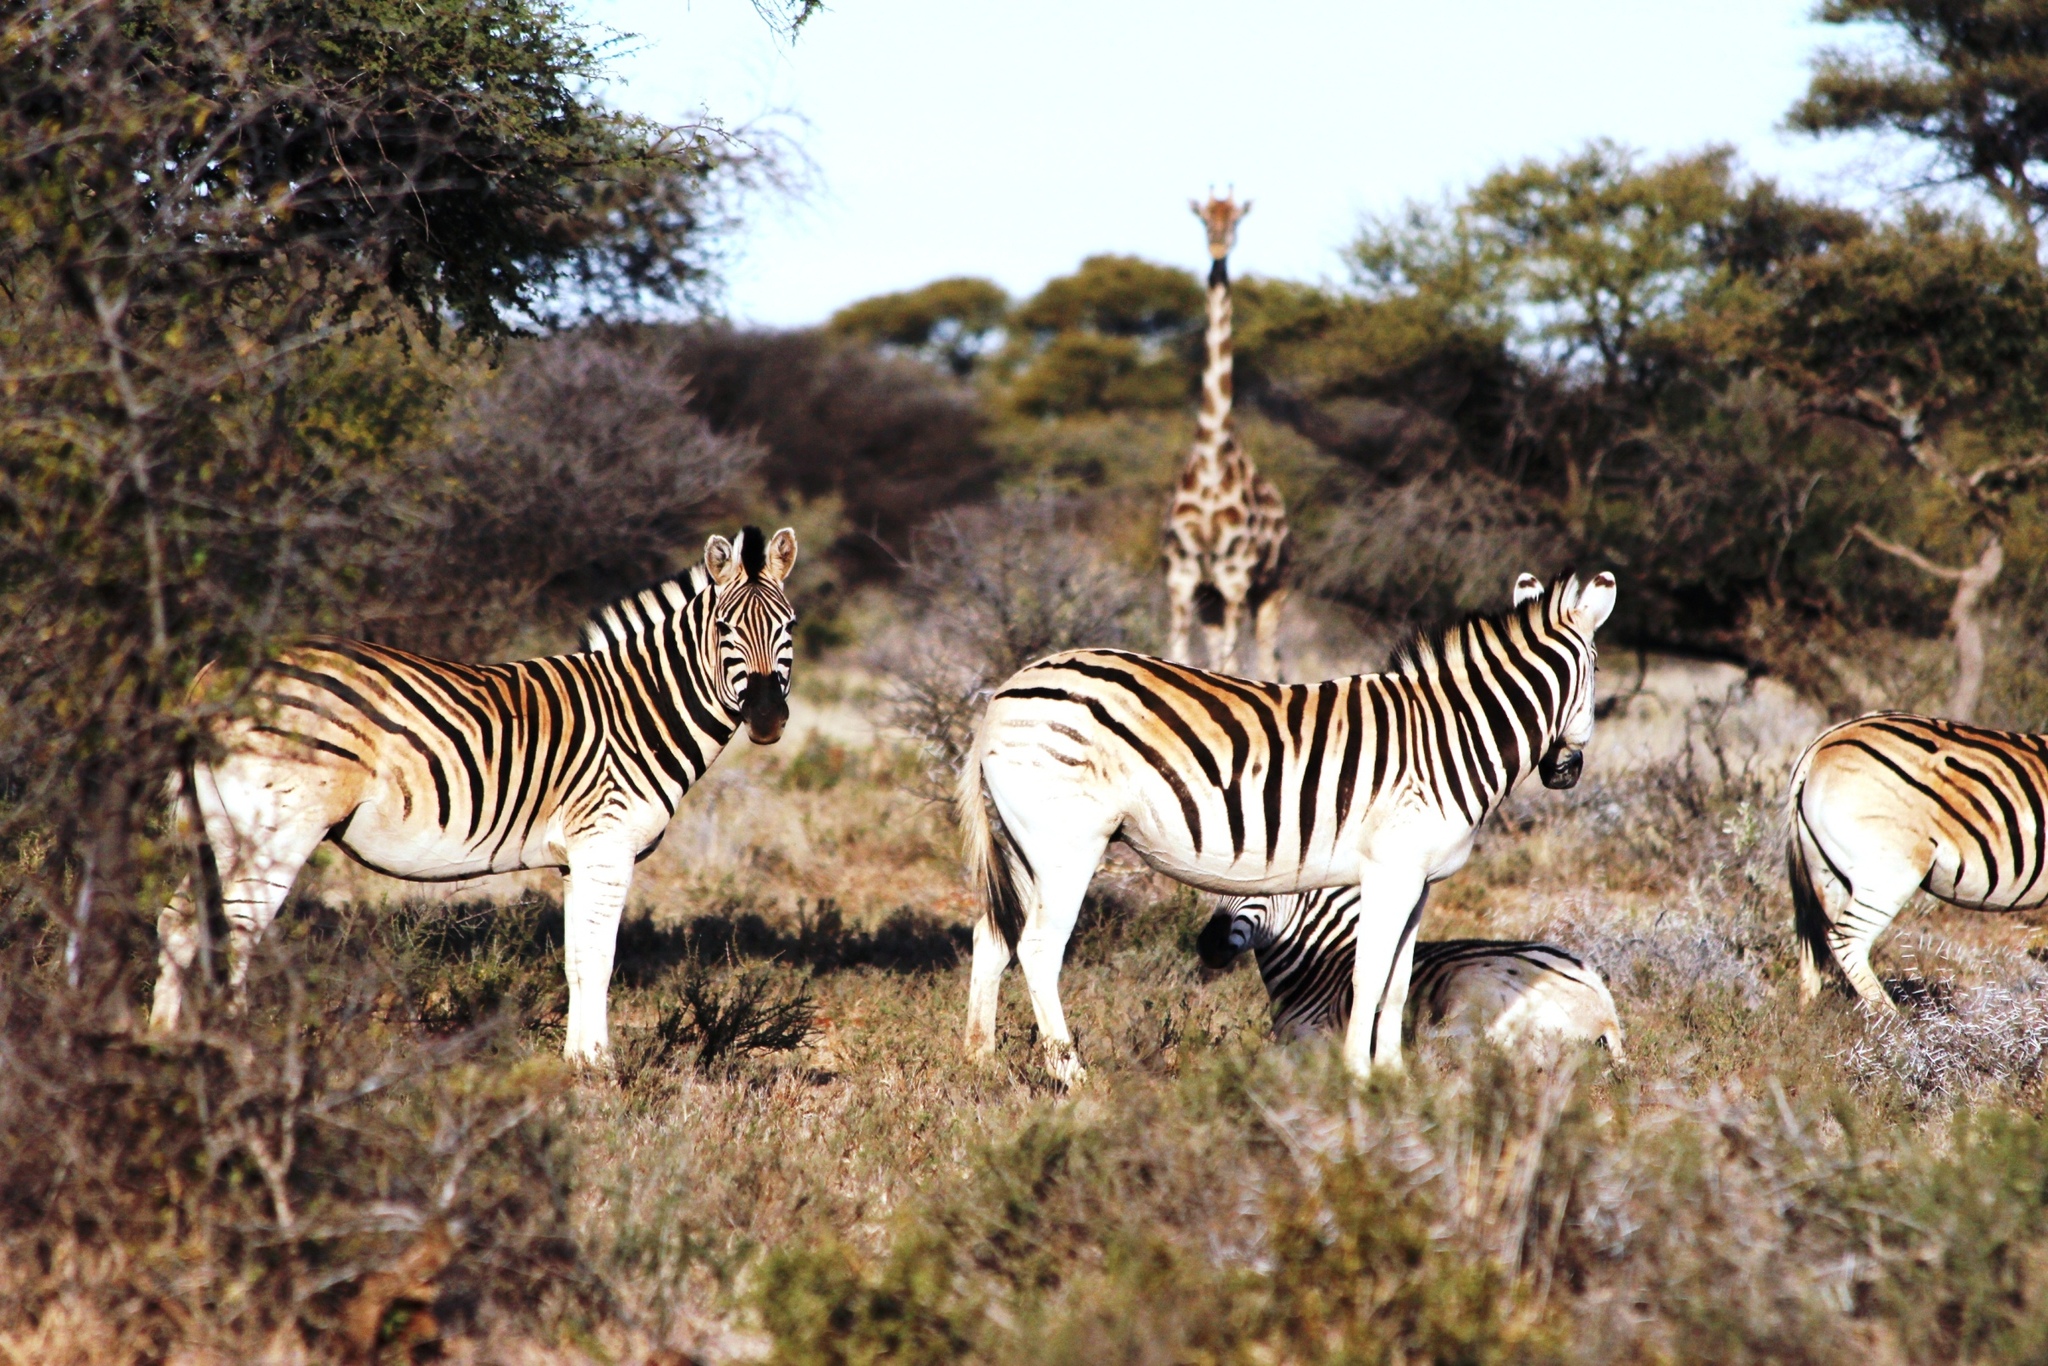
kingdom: Animalia
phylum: Chordata
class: Mammalia
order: Artiodactyla
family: Giraffidae
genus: Giraffa
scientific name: Giraffa giraffa
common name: Southern giraffe
